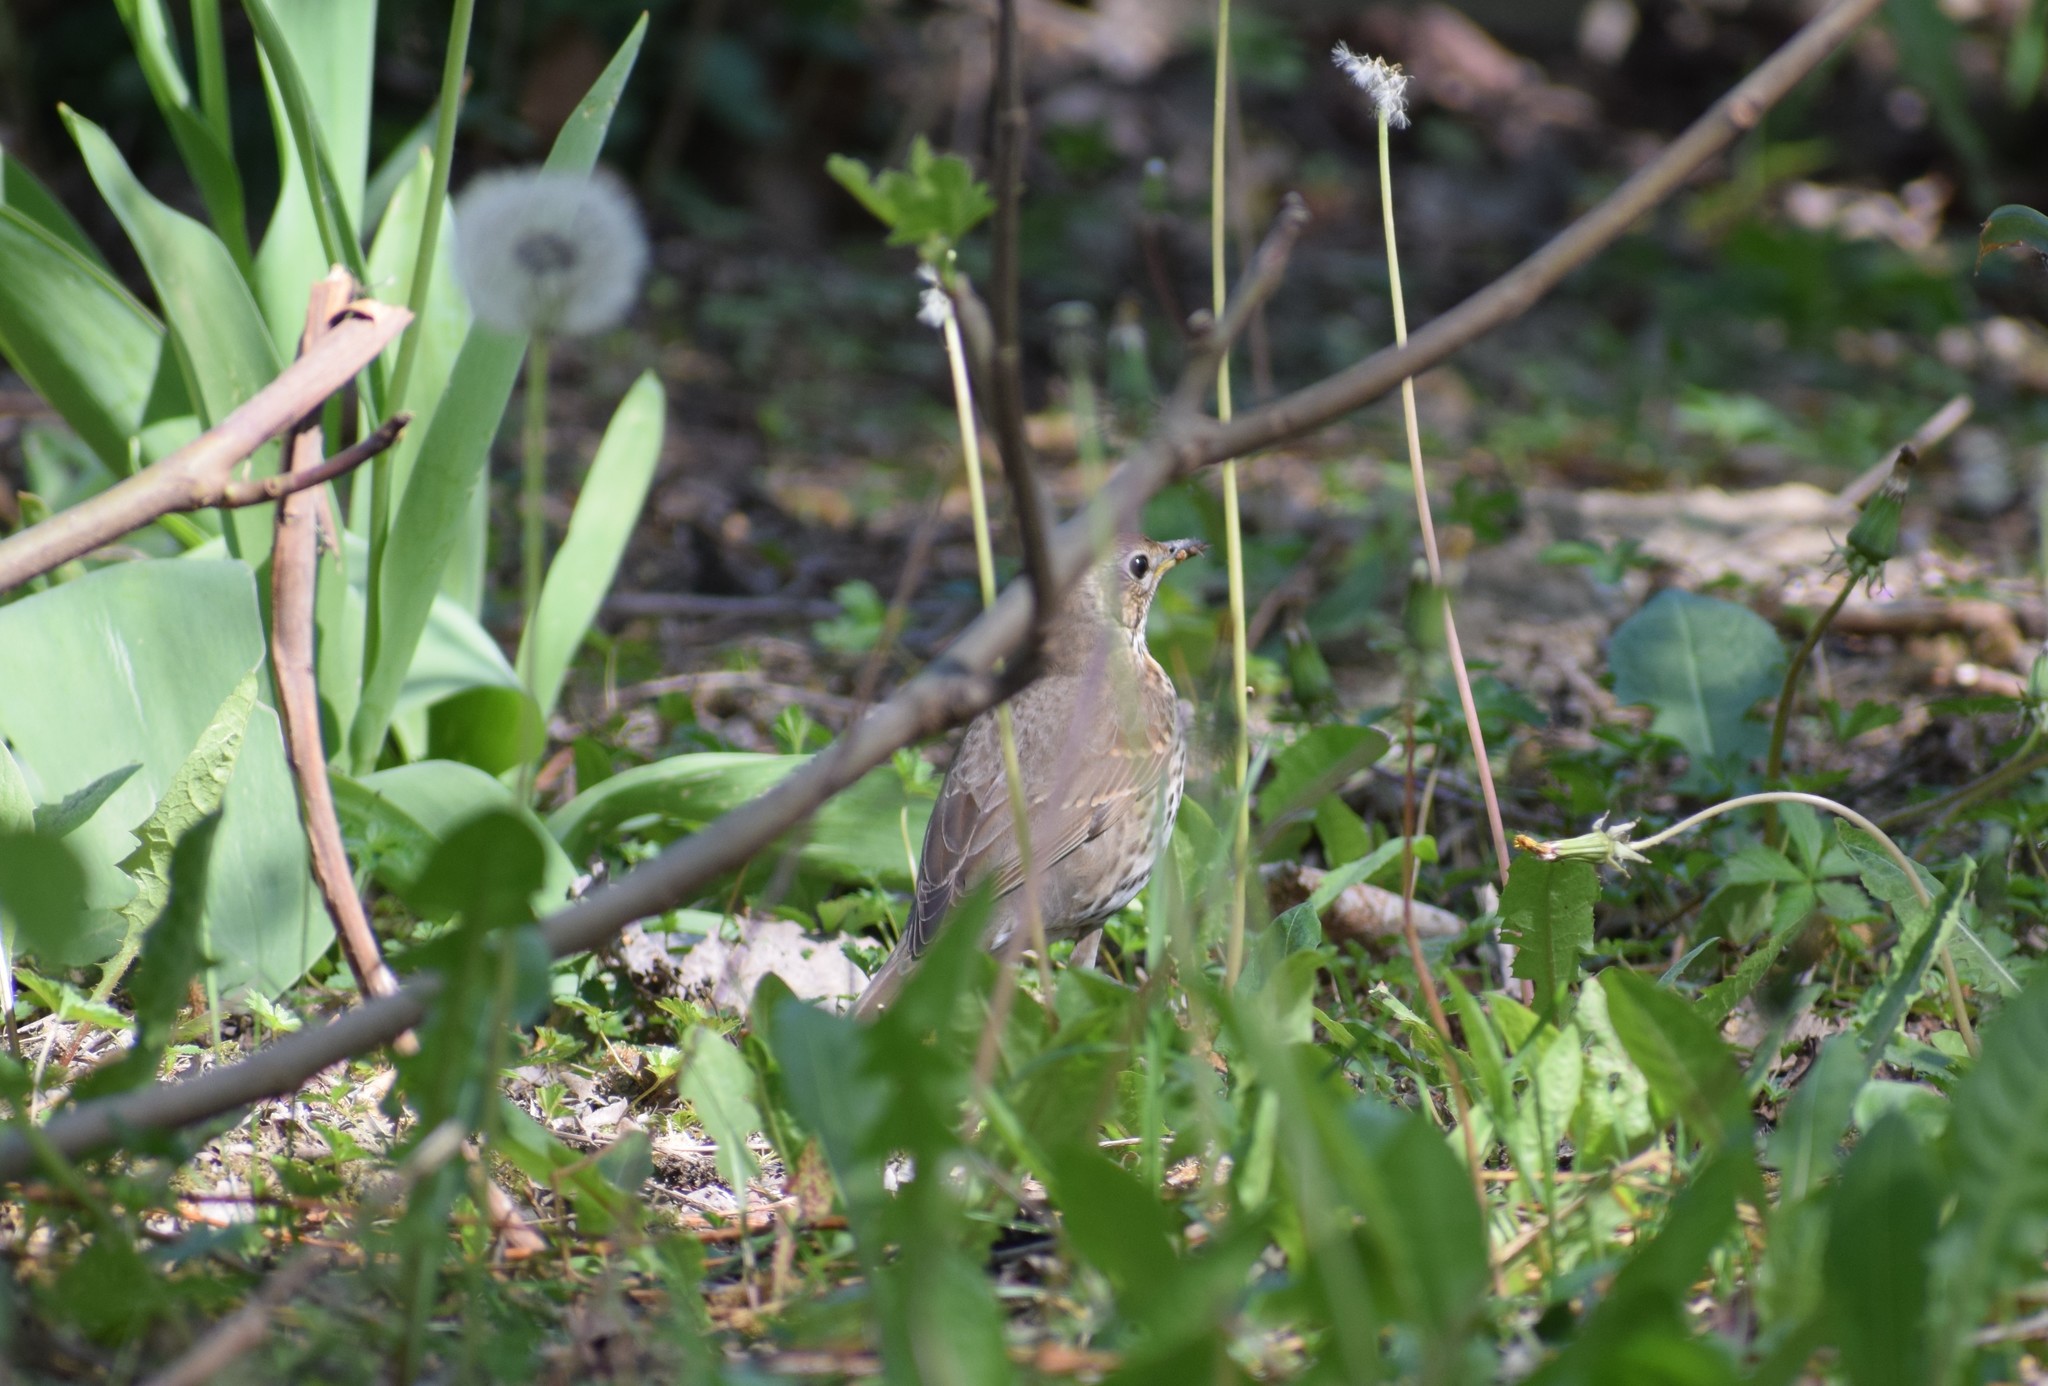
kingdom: Animalia
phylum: Chordata
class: Aves
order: Passeriformes
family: Turdidae
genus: Turdus
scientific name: Turdus philomelos
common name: Song thrush
